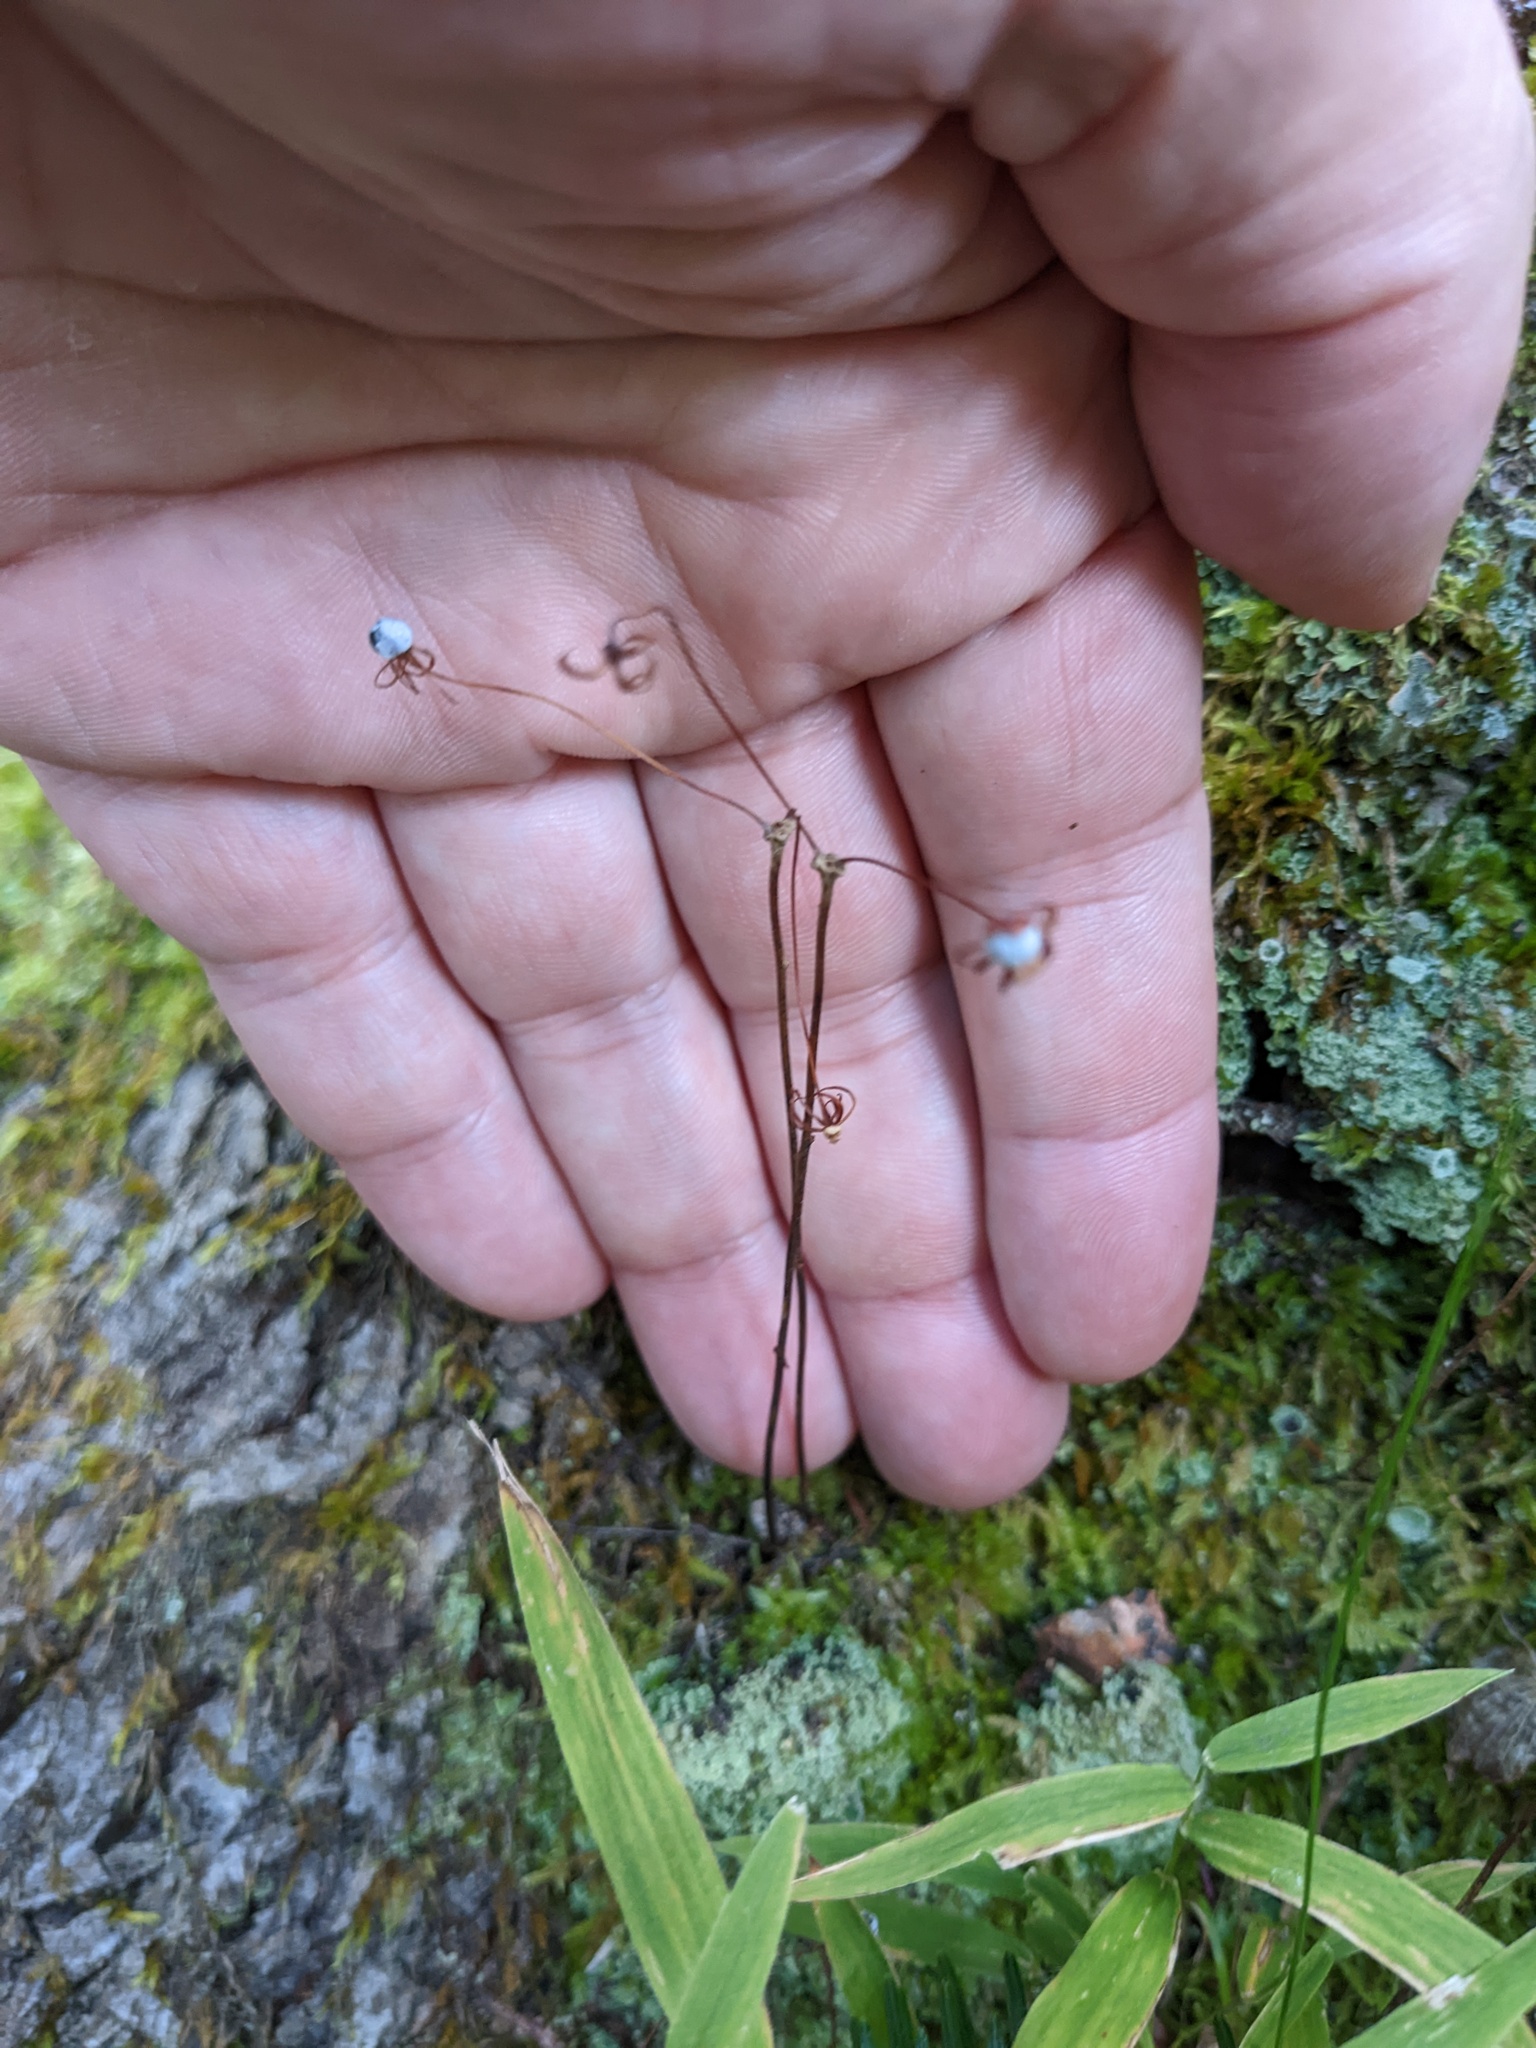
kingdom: Plantae
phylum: Tracheophyta
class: Magnoliopsida
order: Ericales
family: Primulaceae
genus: Lysimachia
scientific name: Lysimachia borealis
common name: American starflower
